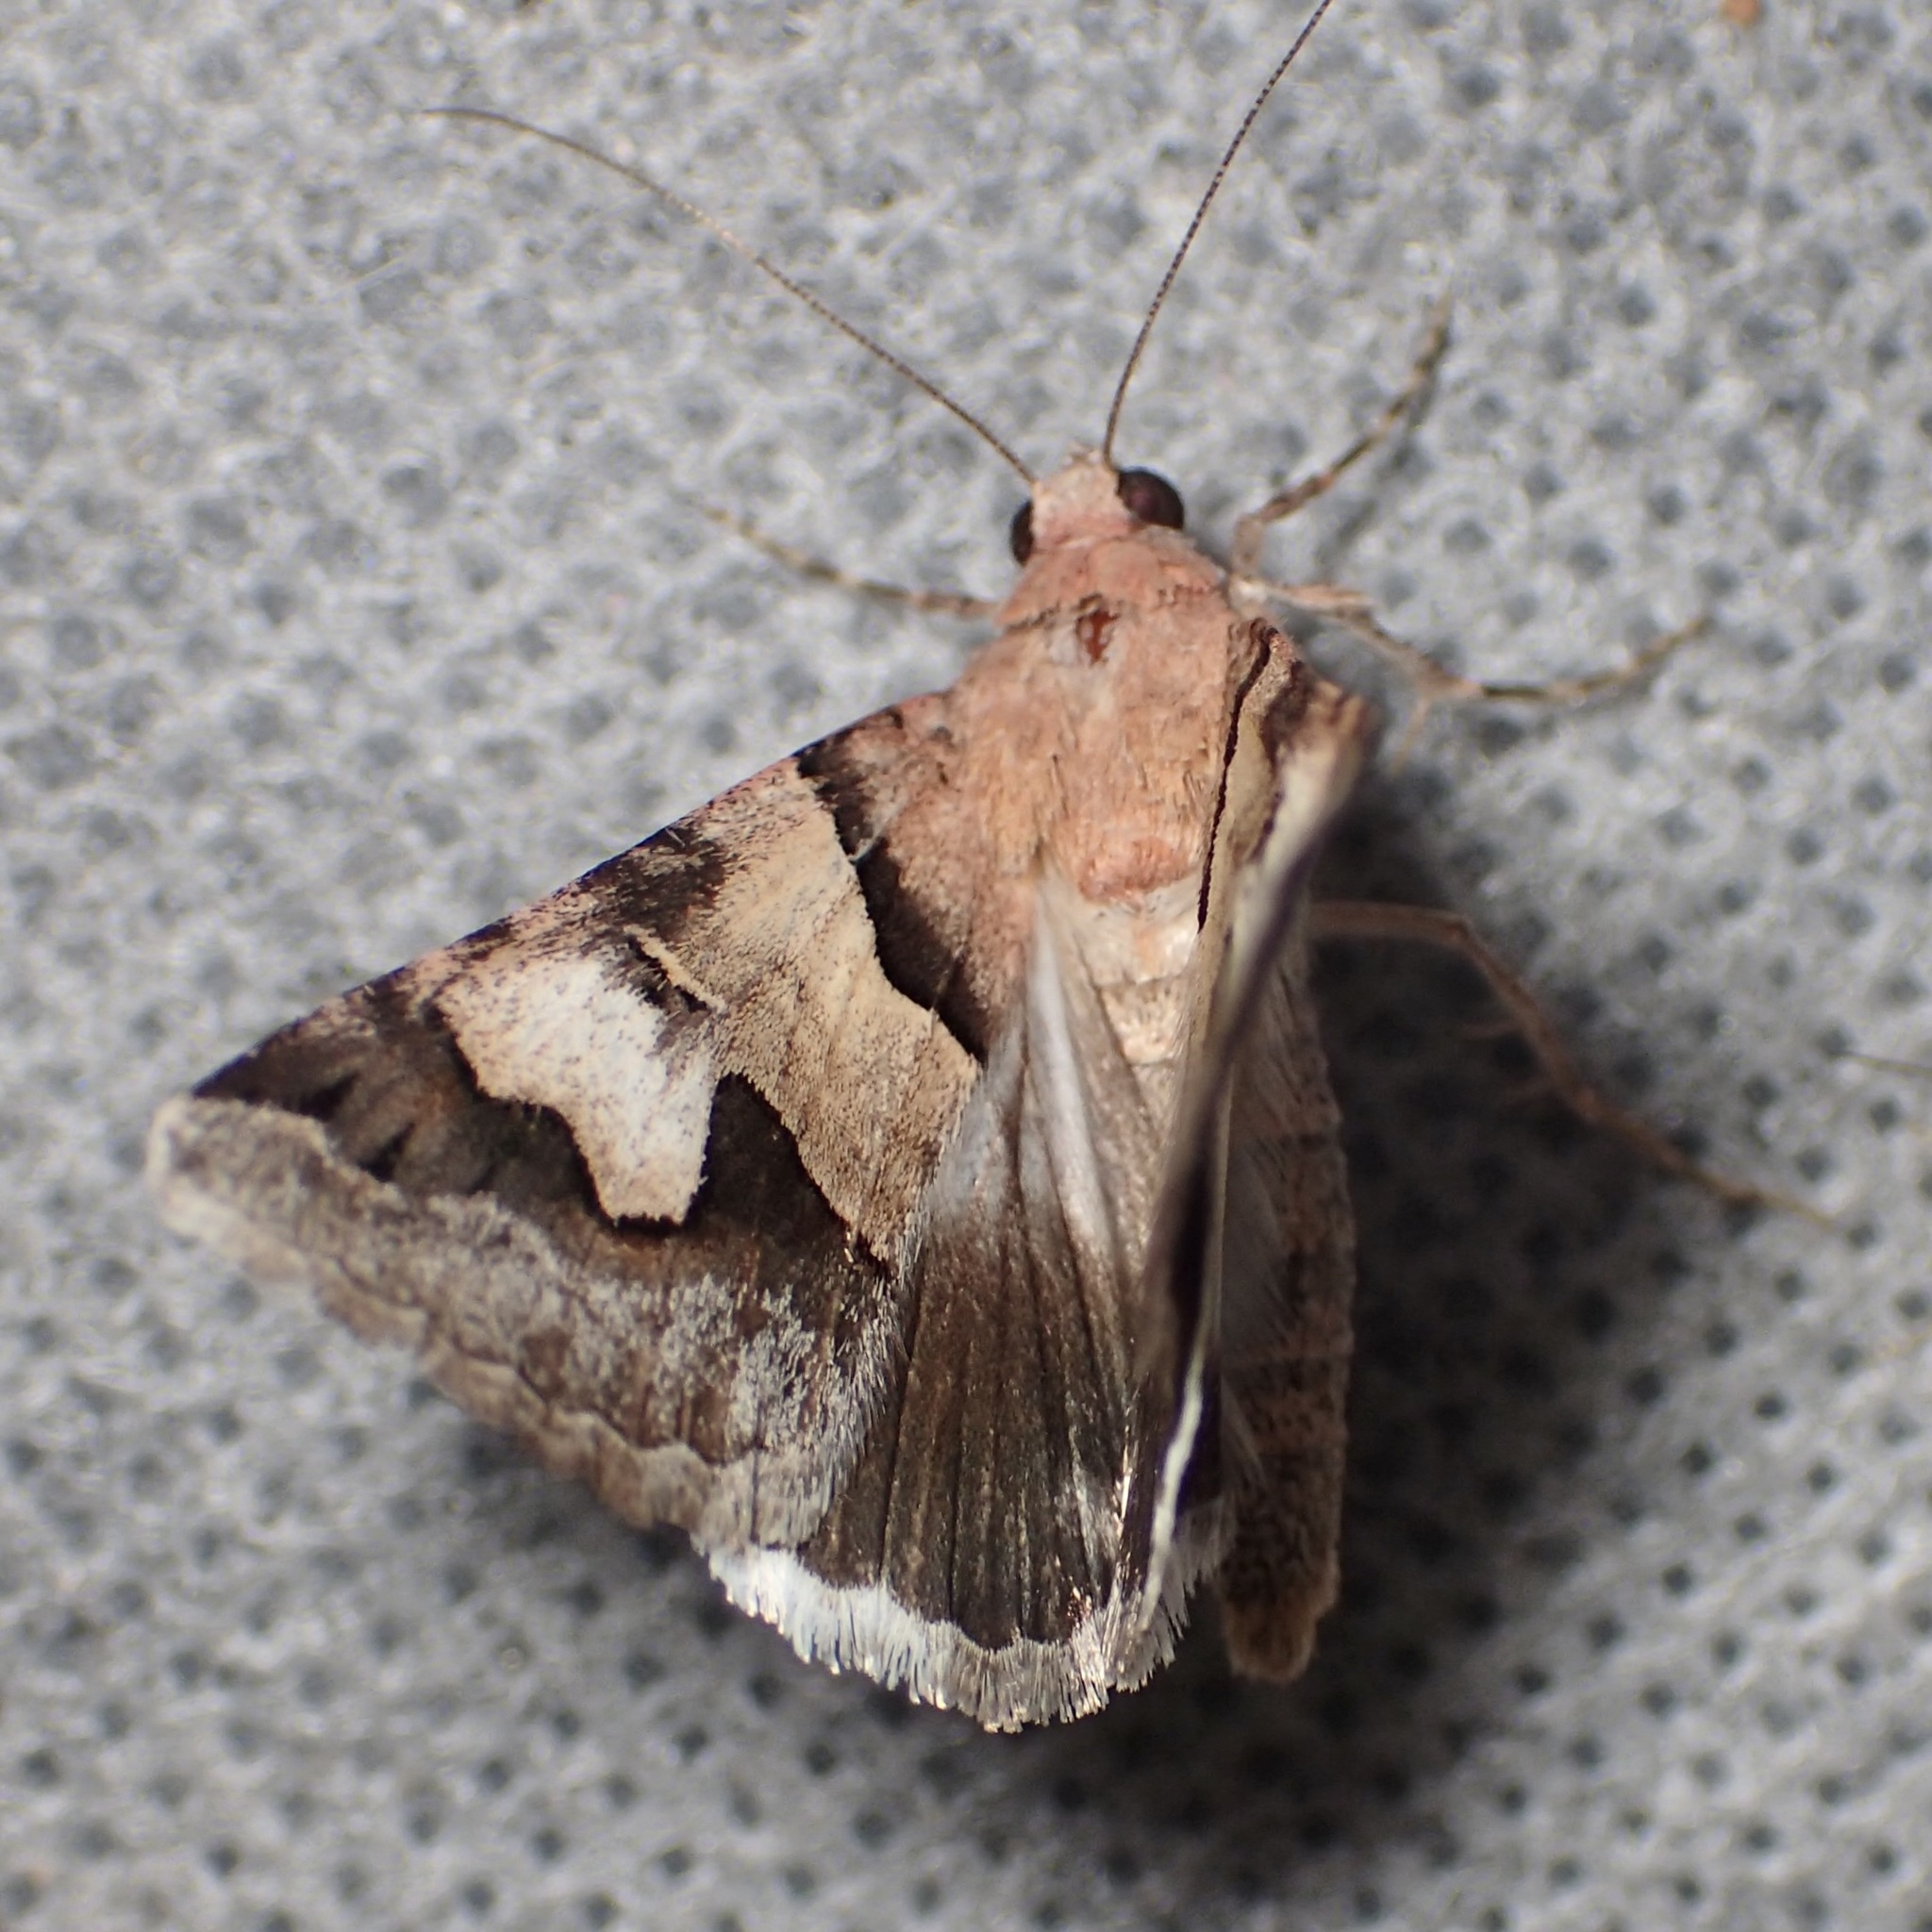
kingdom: Animalia
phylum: Arthropoda
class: Insecta
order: Lepidoptera
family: Erebidae
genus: Drasteria
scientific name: Drasteria pallescens
